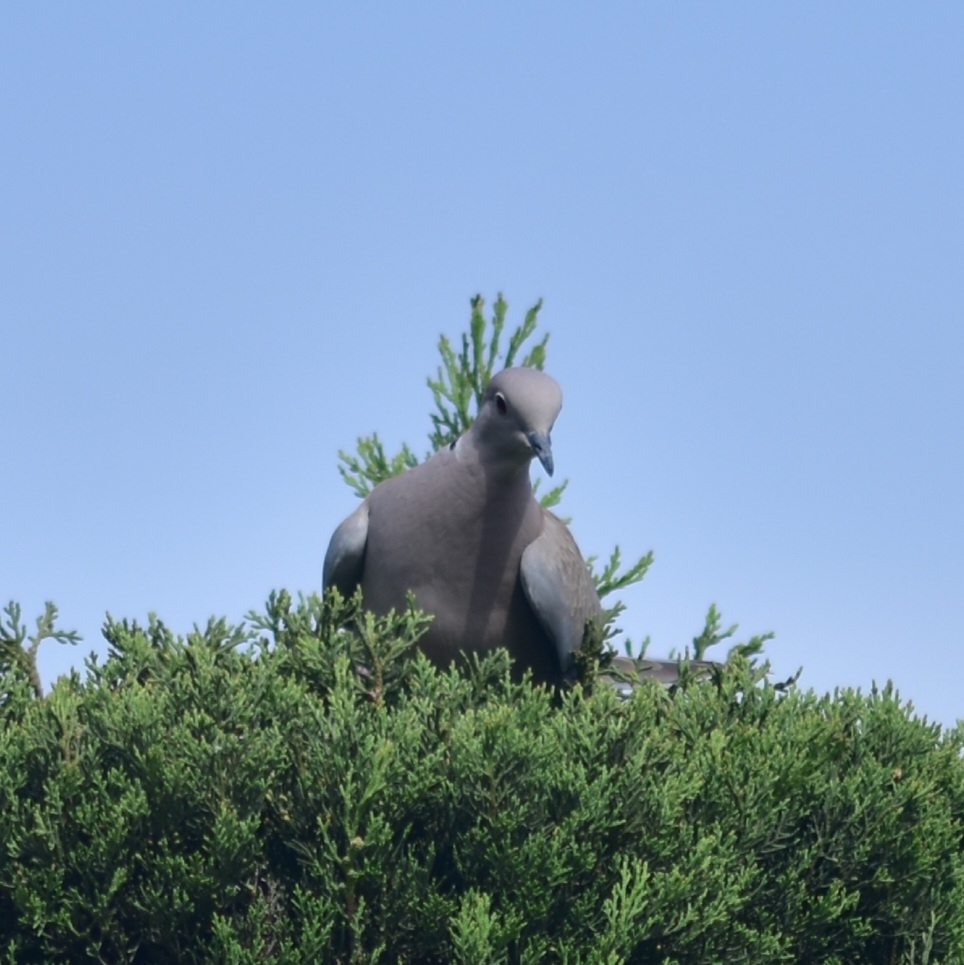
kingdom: Animalia
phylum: Chordata
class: Aves
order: Columbiformes
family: Columbidae
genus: Streptopelia
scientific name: Streptopelia decaocto
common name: Eurasian collared dove
